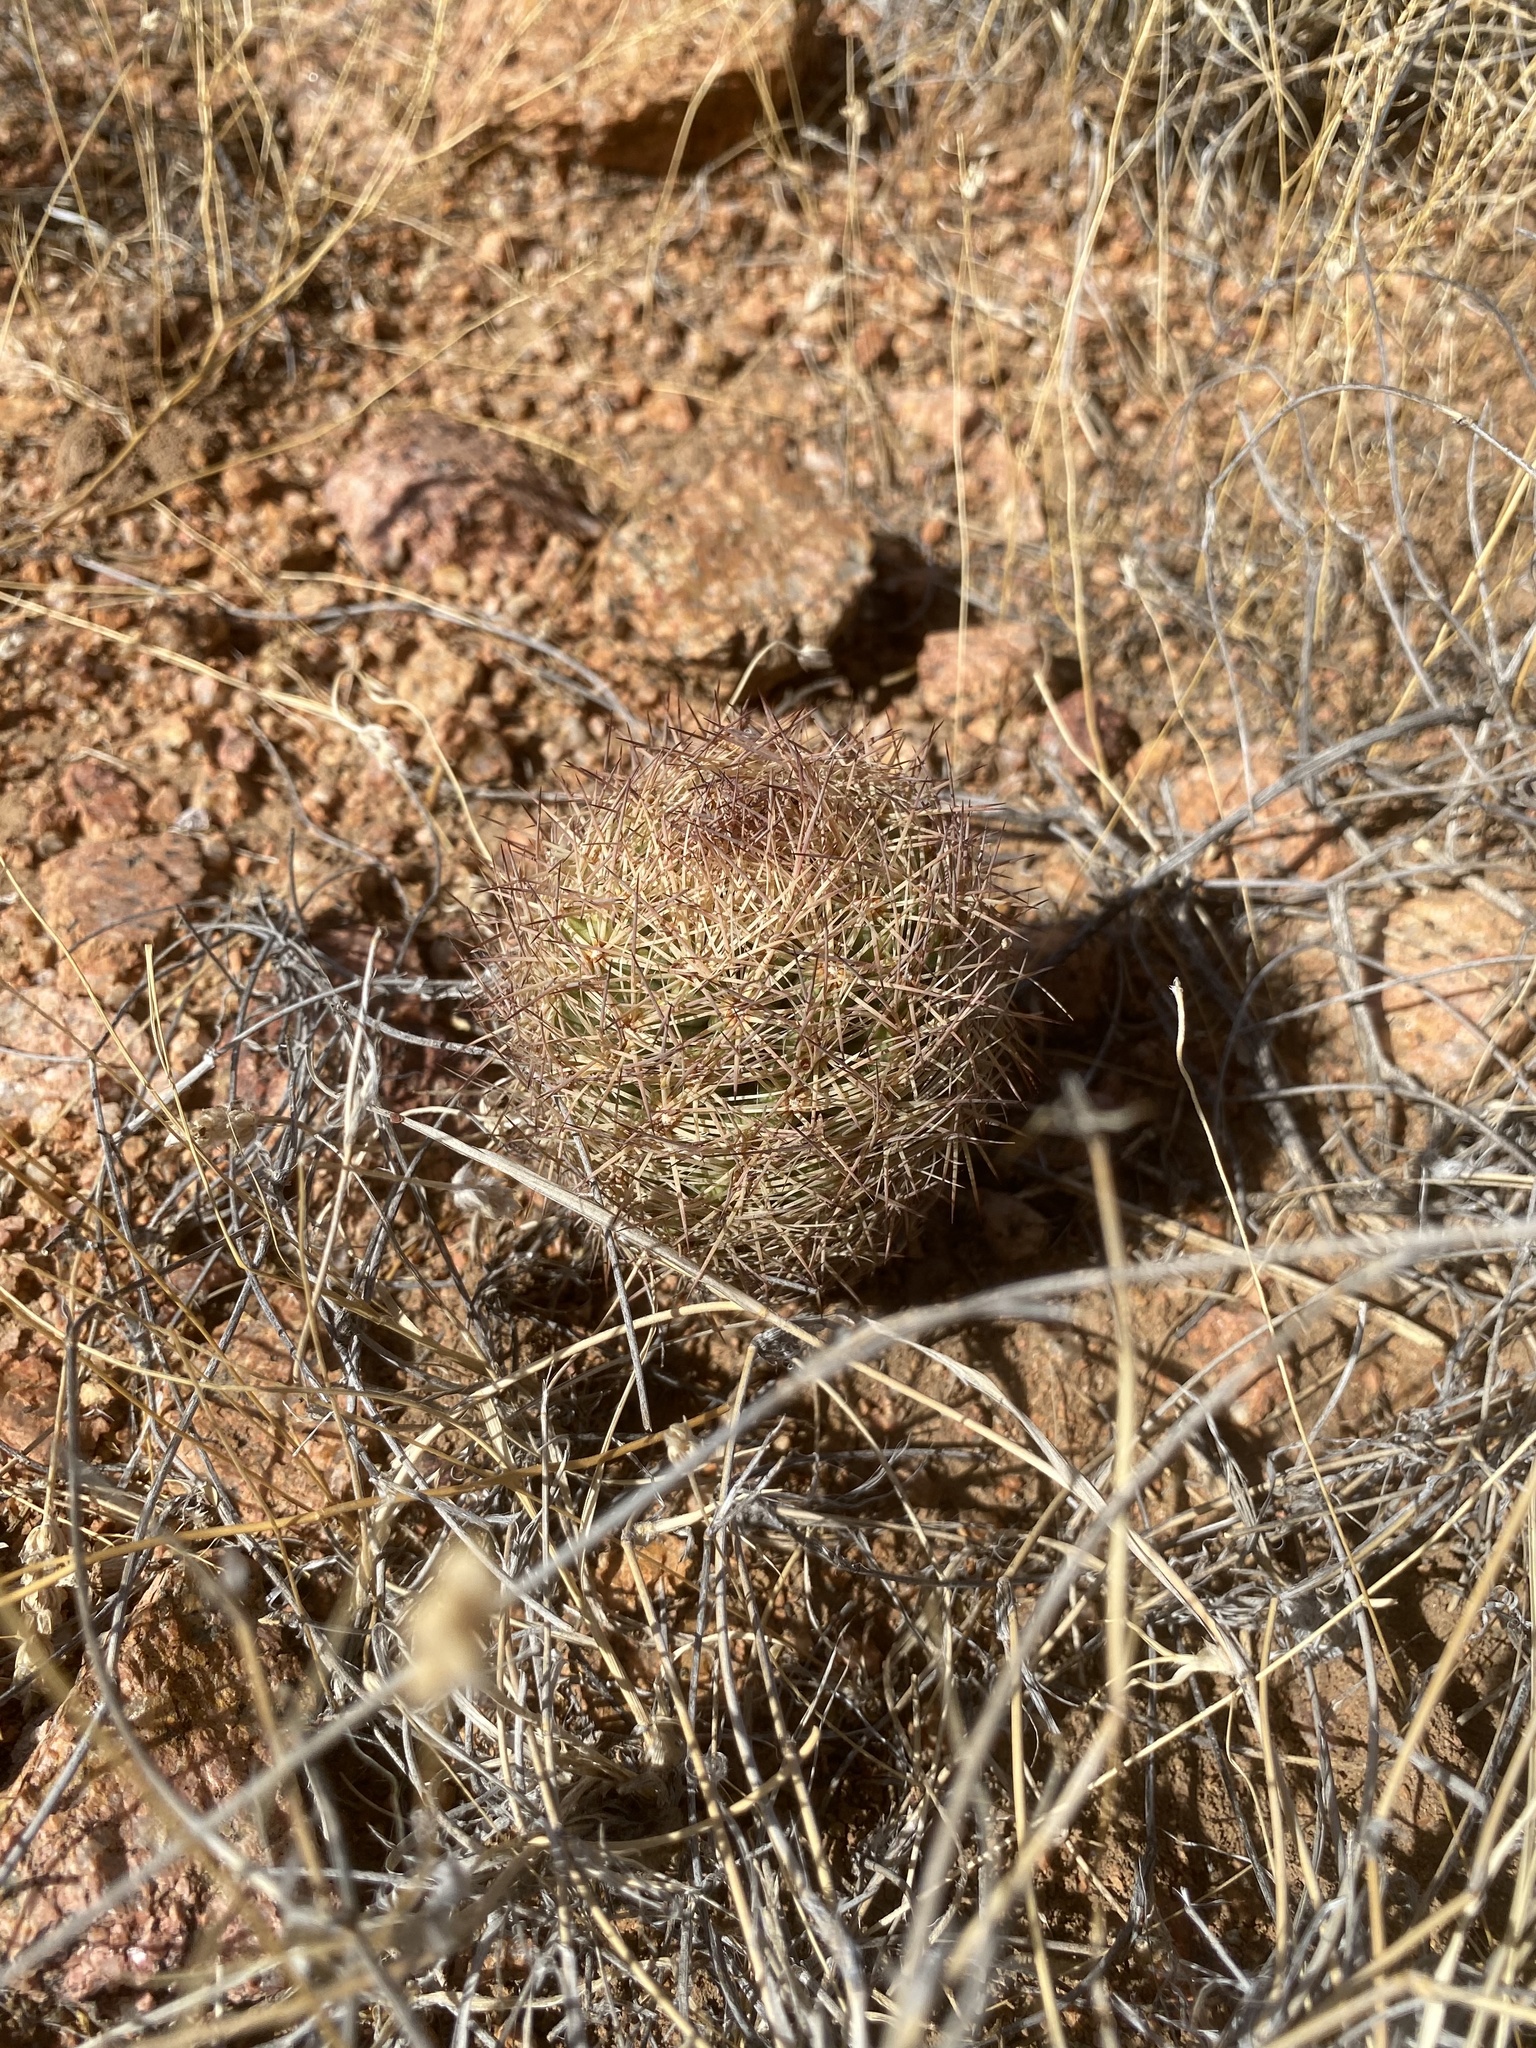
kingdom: Plantae
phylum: Tracheophyta
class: Magnoliopsida
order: Caryophyllales
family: Cactaceae
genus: Sclerocactus
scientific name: Sclerocactus intertextus
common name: White fish-hook cactus
